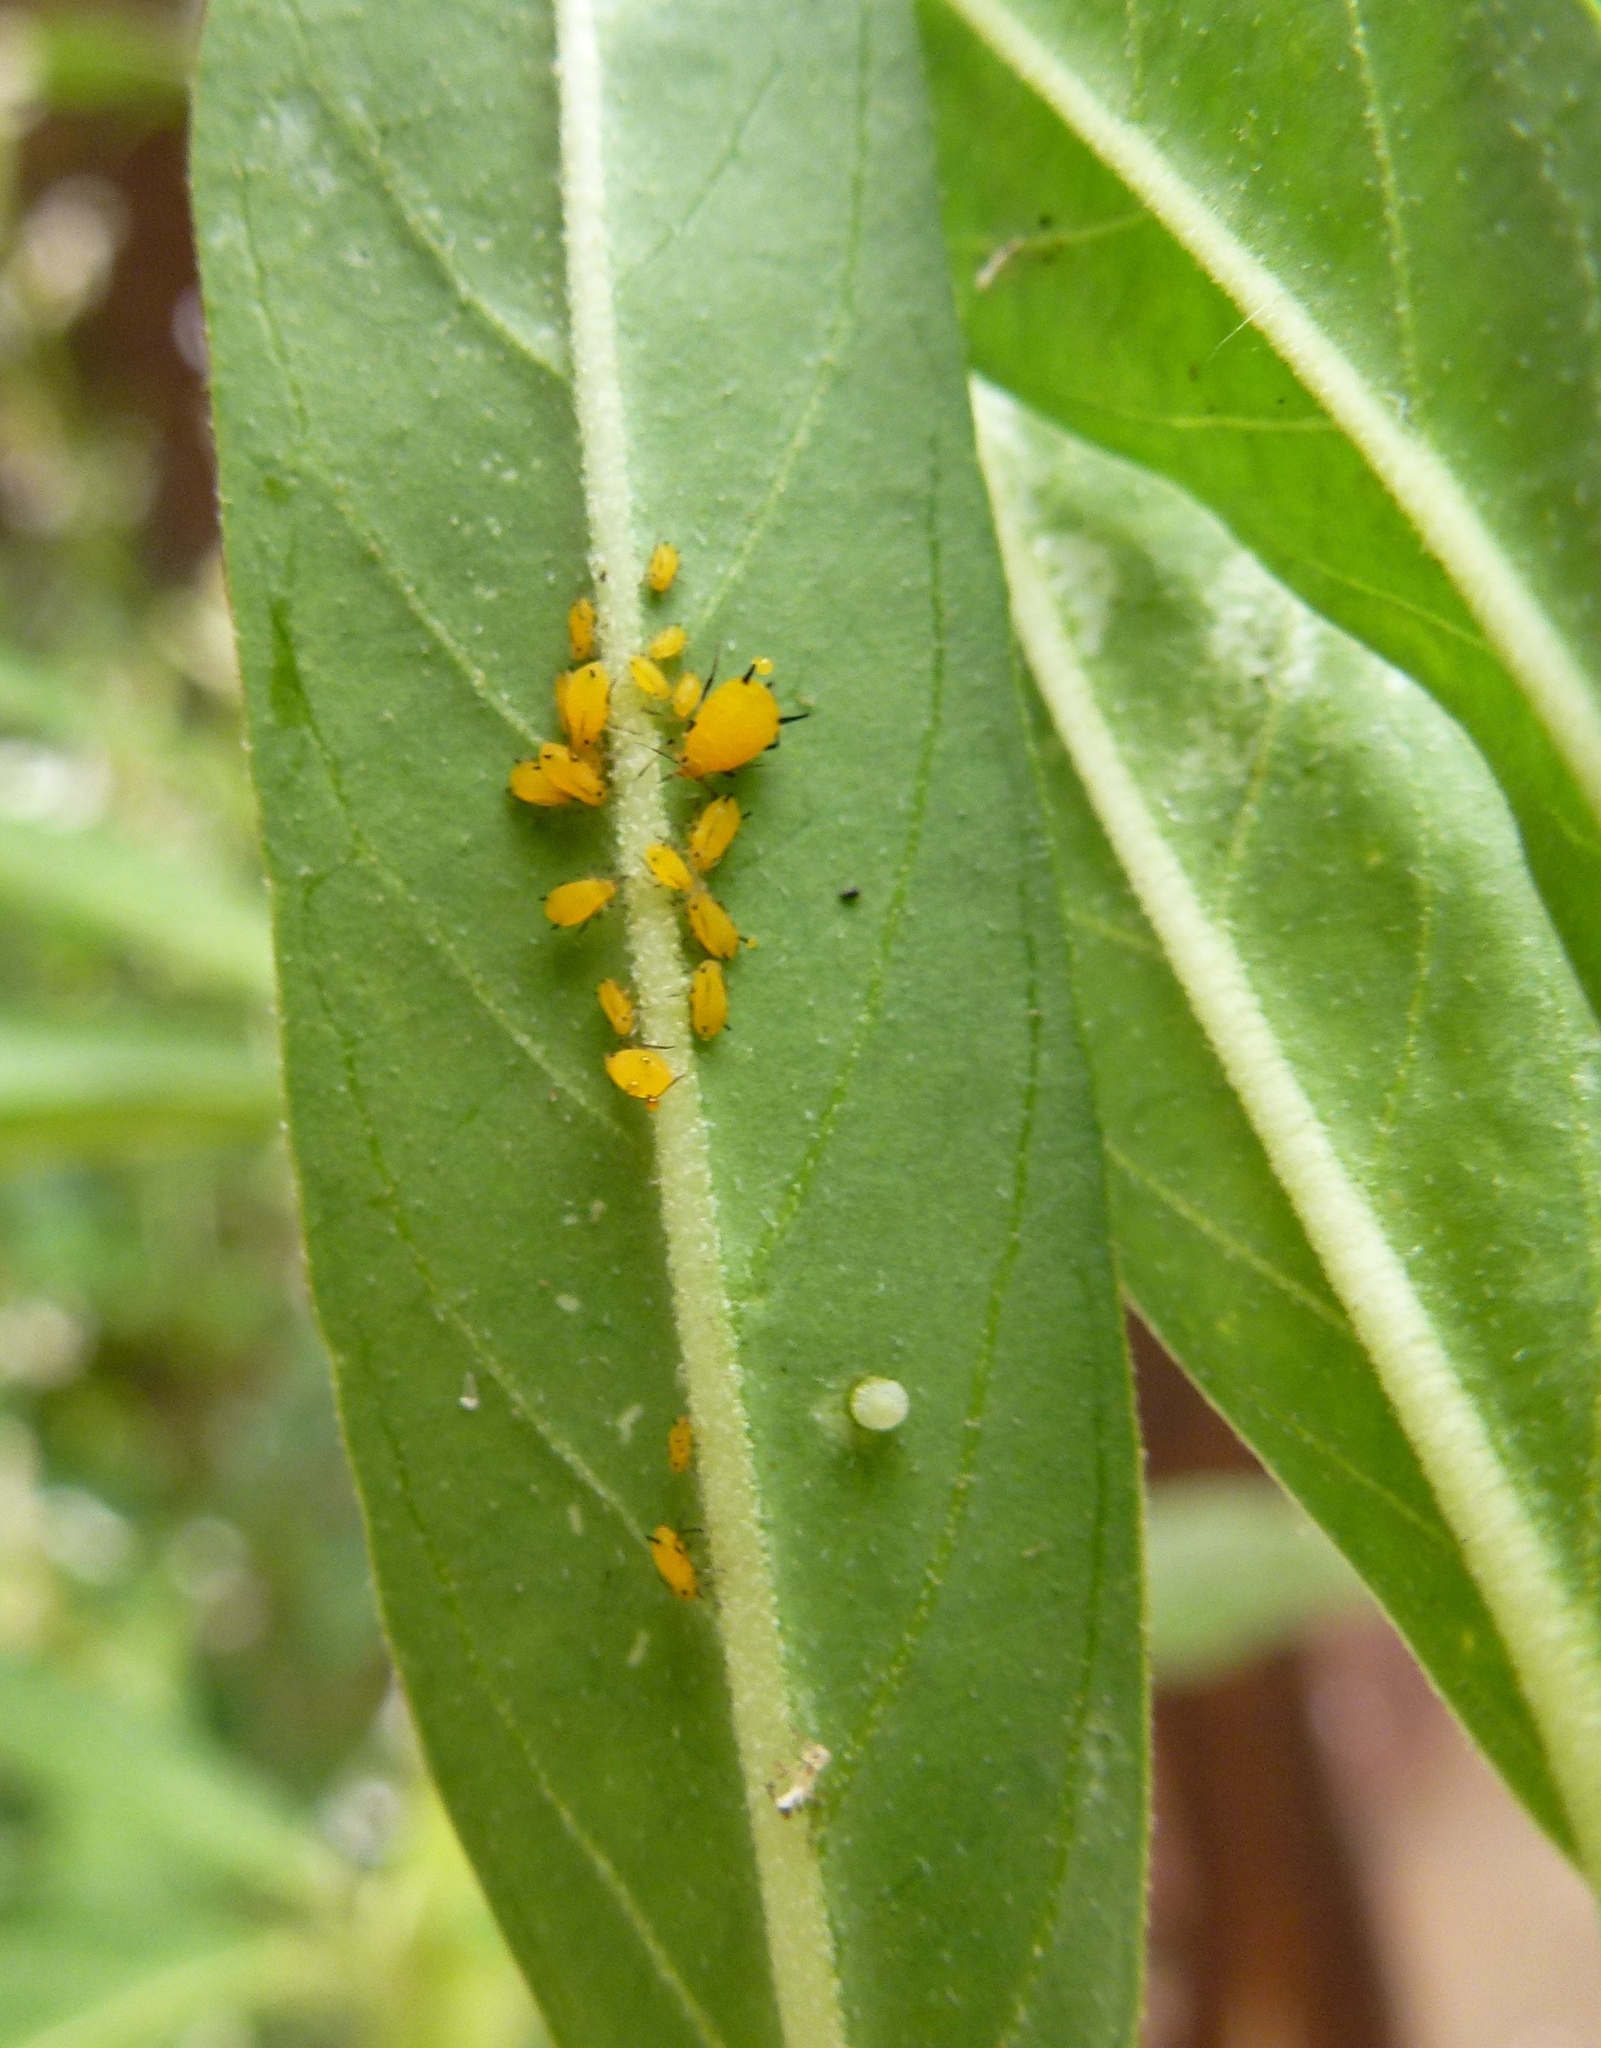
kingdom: Animalia
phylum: Arthropoda
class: Insecta
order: Hemiptera
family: Aphididae
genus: Aphis
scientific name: Aphis nerii
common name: Oleander aphid
